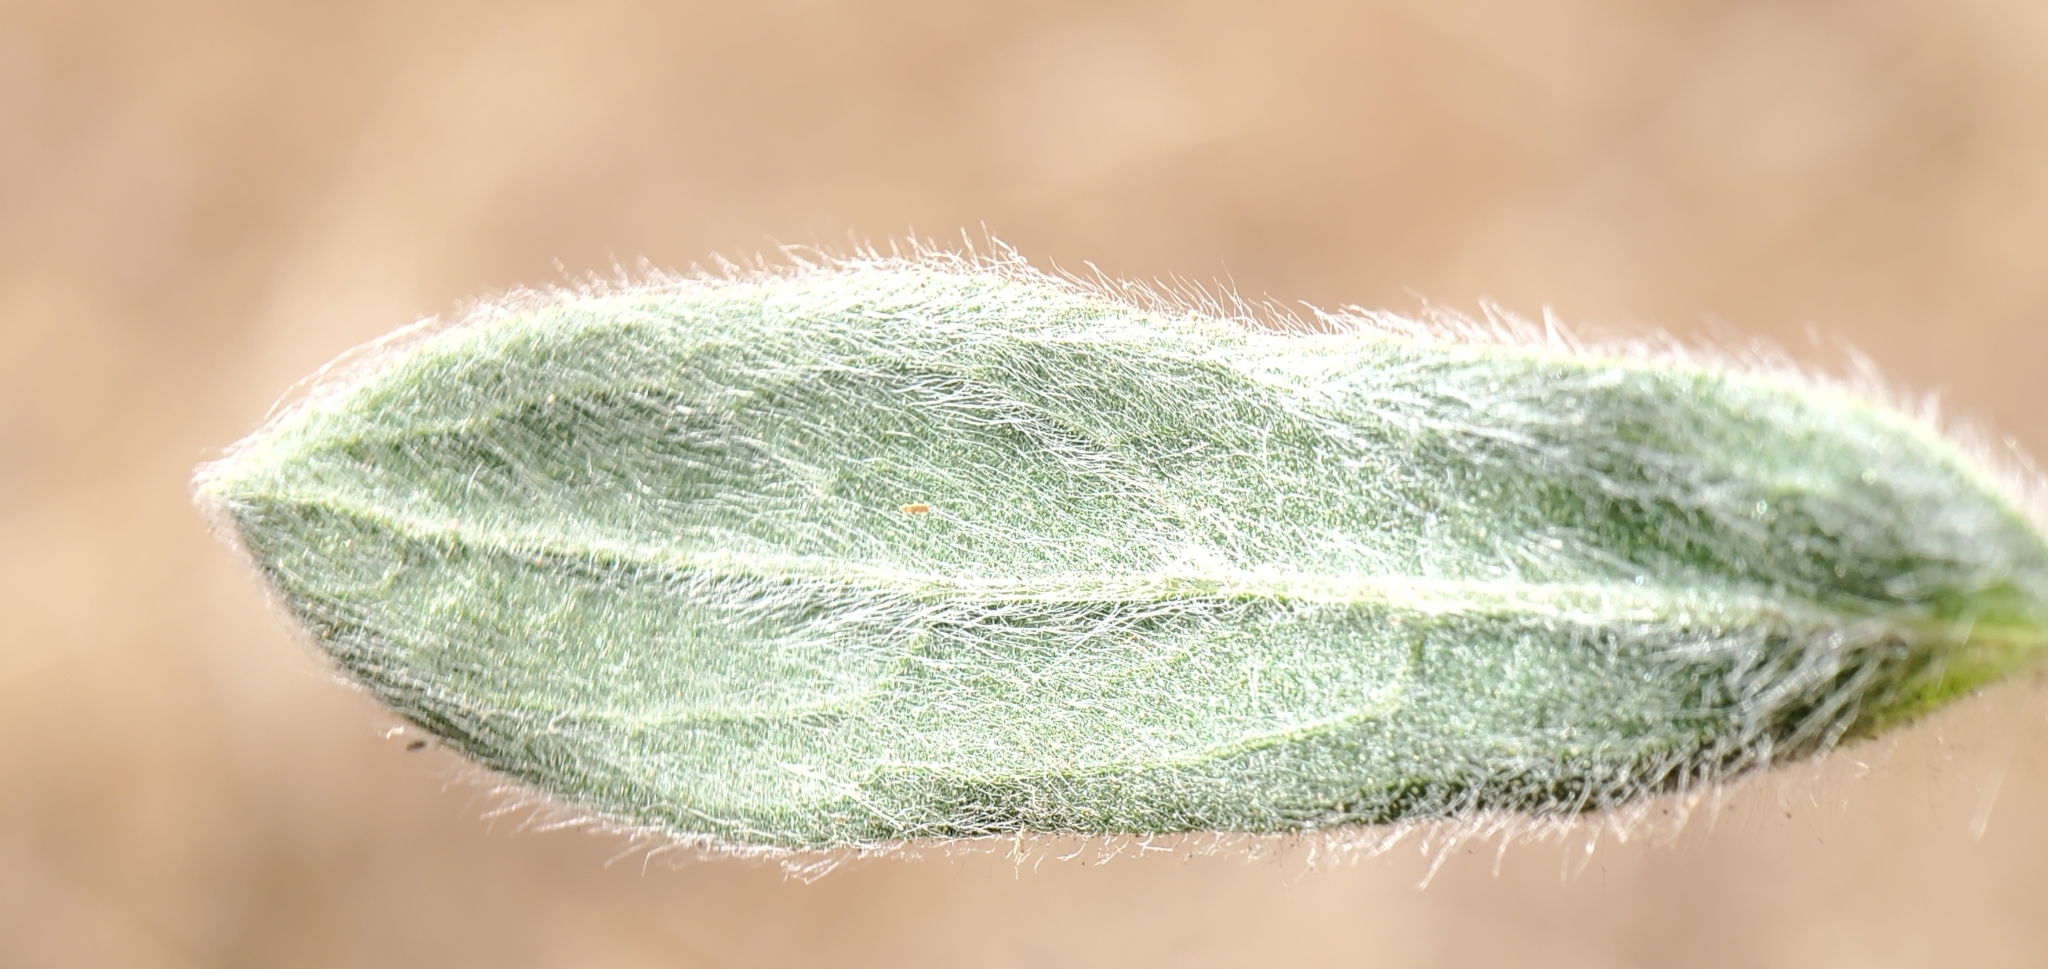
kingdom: Plantae
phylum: Tracheophyta
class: Magnoliopsida
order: Asterales
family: Asteraceae
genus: Heterotheca
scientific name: Heterotheca sessiliflora
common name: Sessile-flower golden-aster
